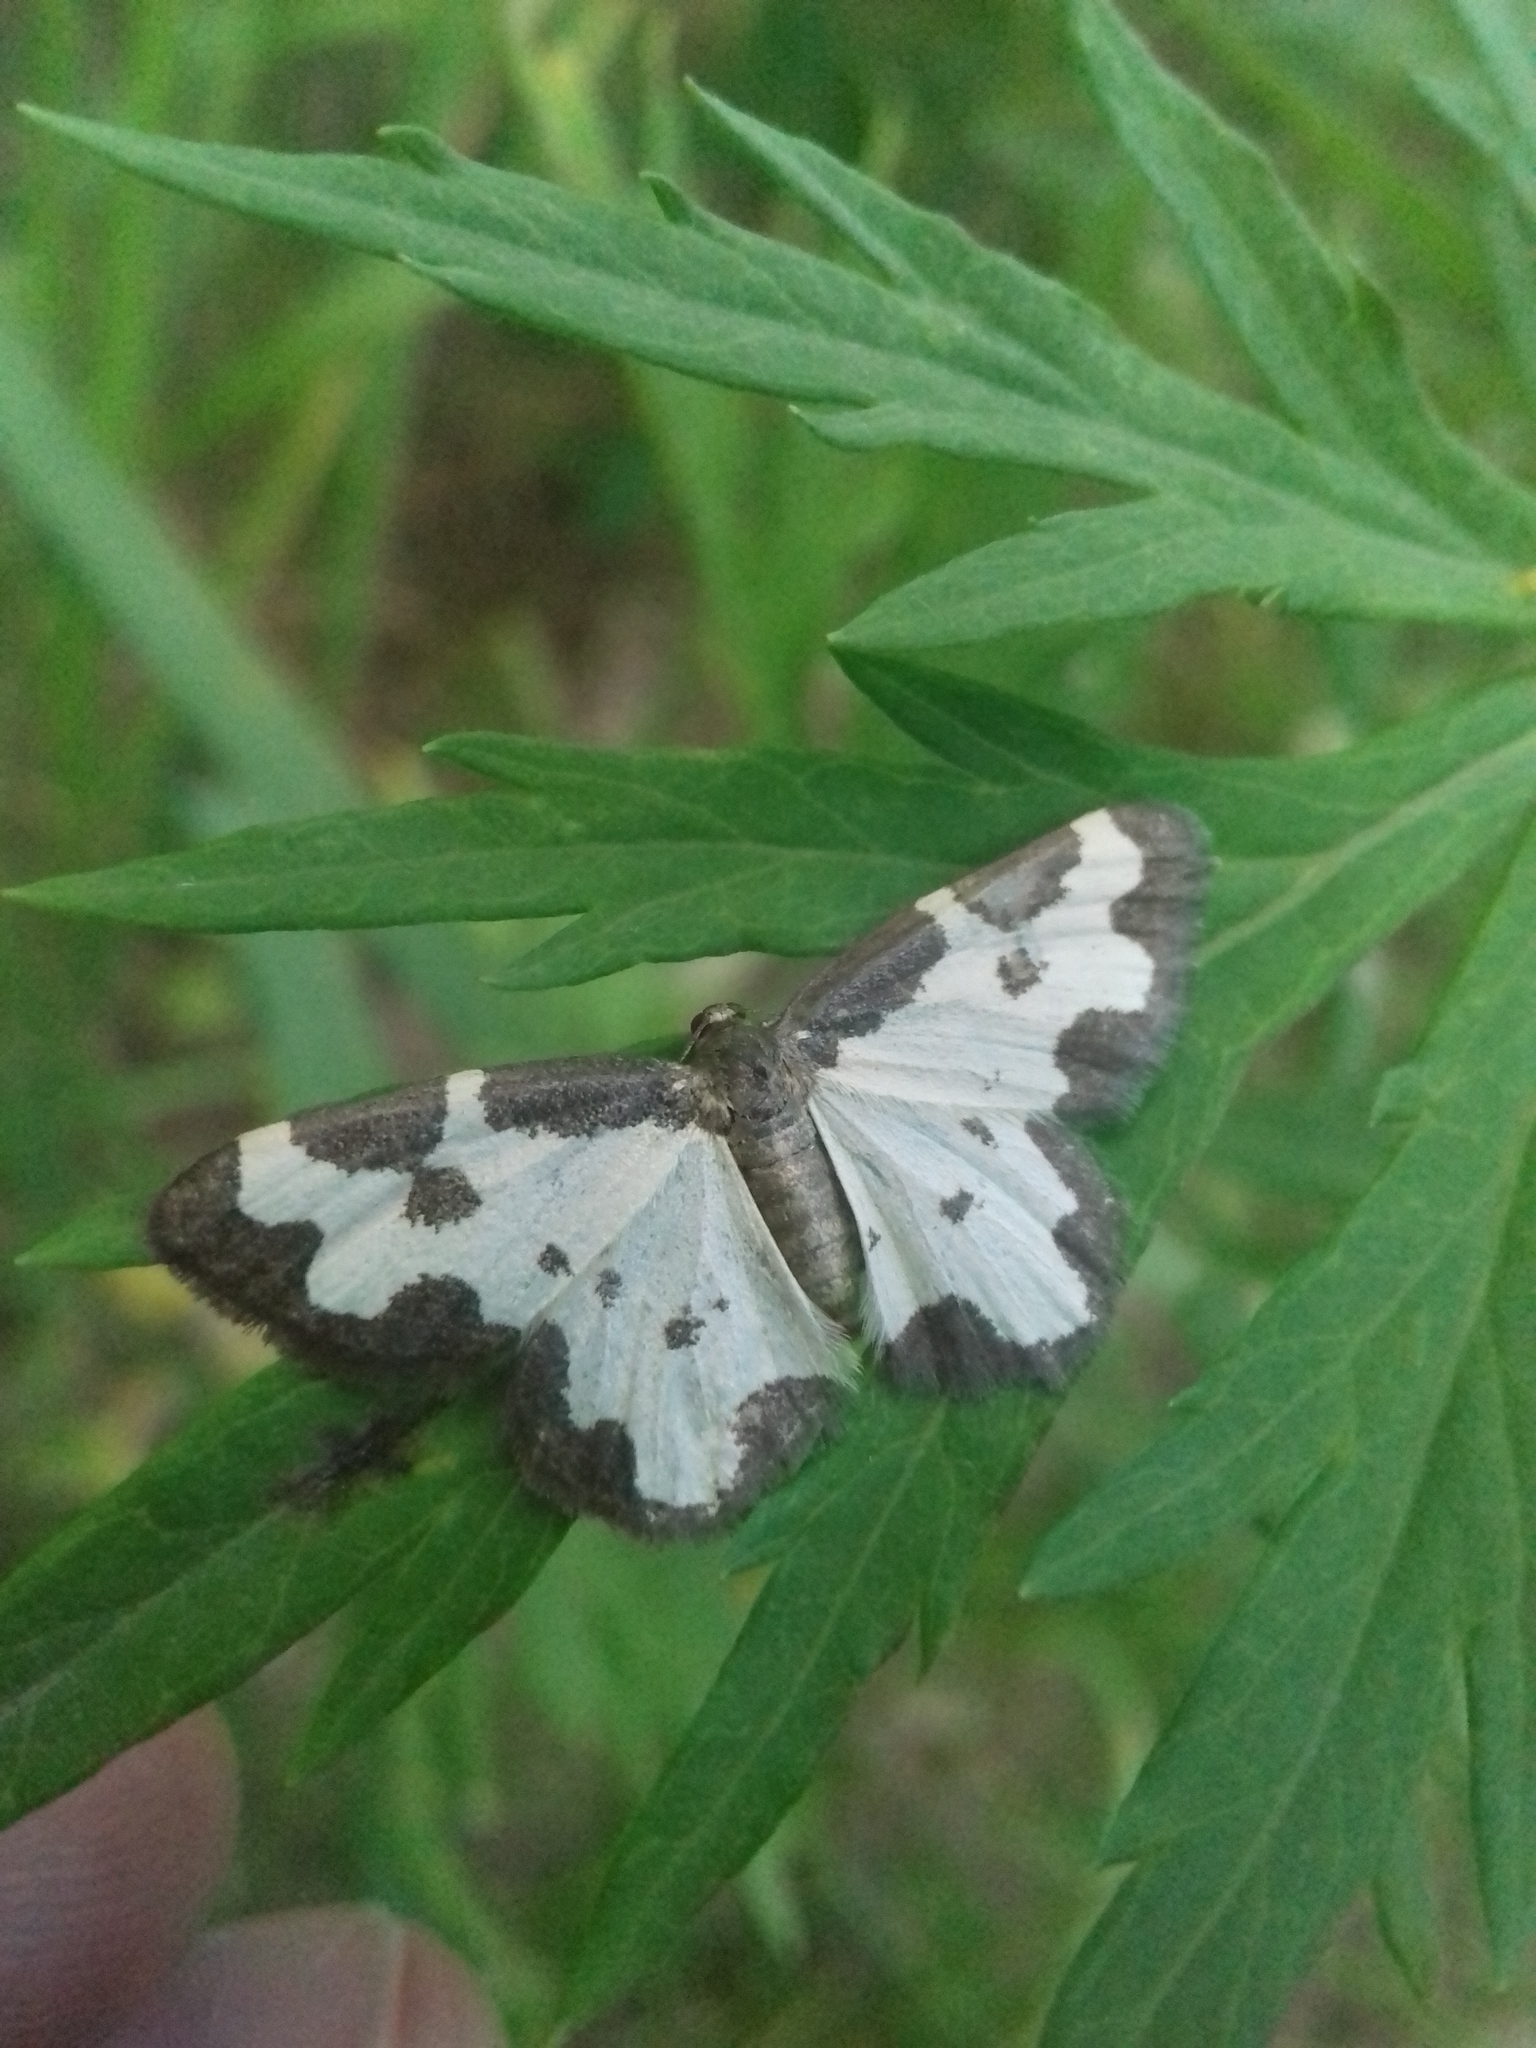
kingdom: Animalia
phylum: Arthropoda
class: Insecta
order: Lepidoptera
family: Geometridae
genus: Lomaspilis
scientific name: Lomaspilis marginata
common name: Clouded border
